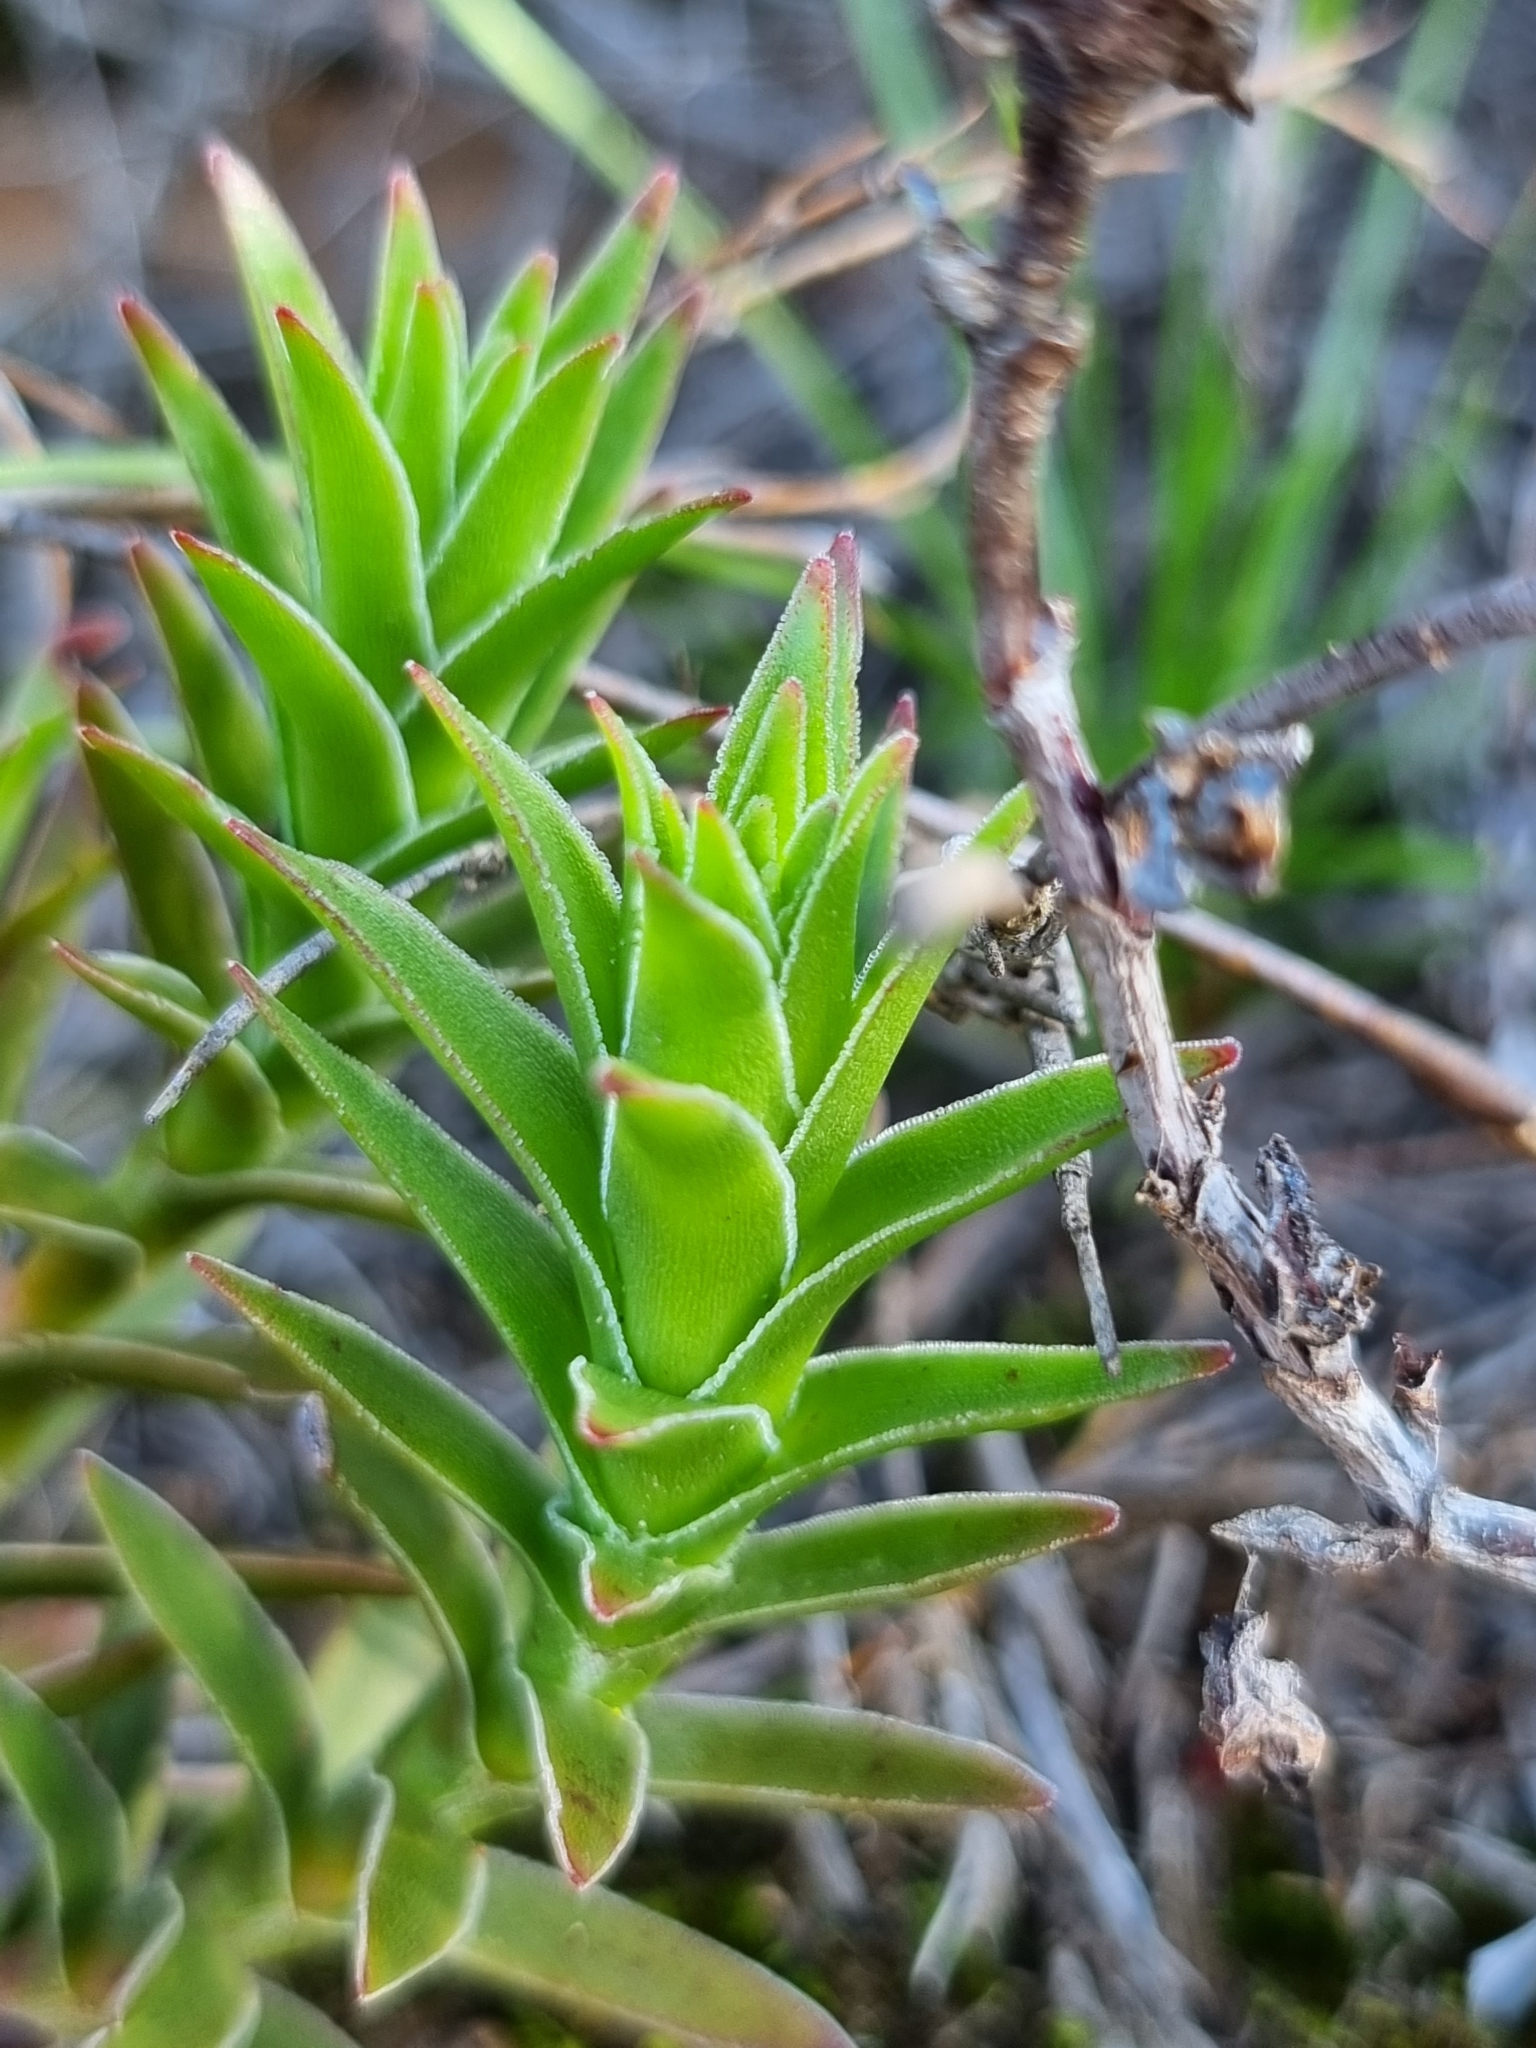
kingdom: Plantae
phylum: Tracheophyta
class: Magnoliopsida
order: Saxifragales
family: Crassulaceae
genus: Crassula
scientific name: Crassula fascicularis
